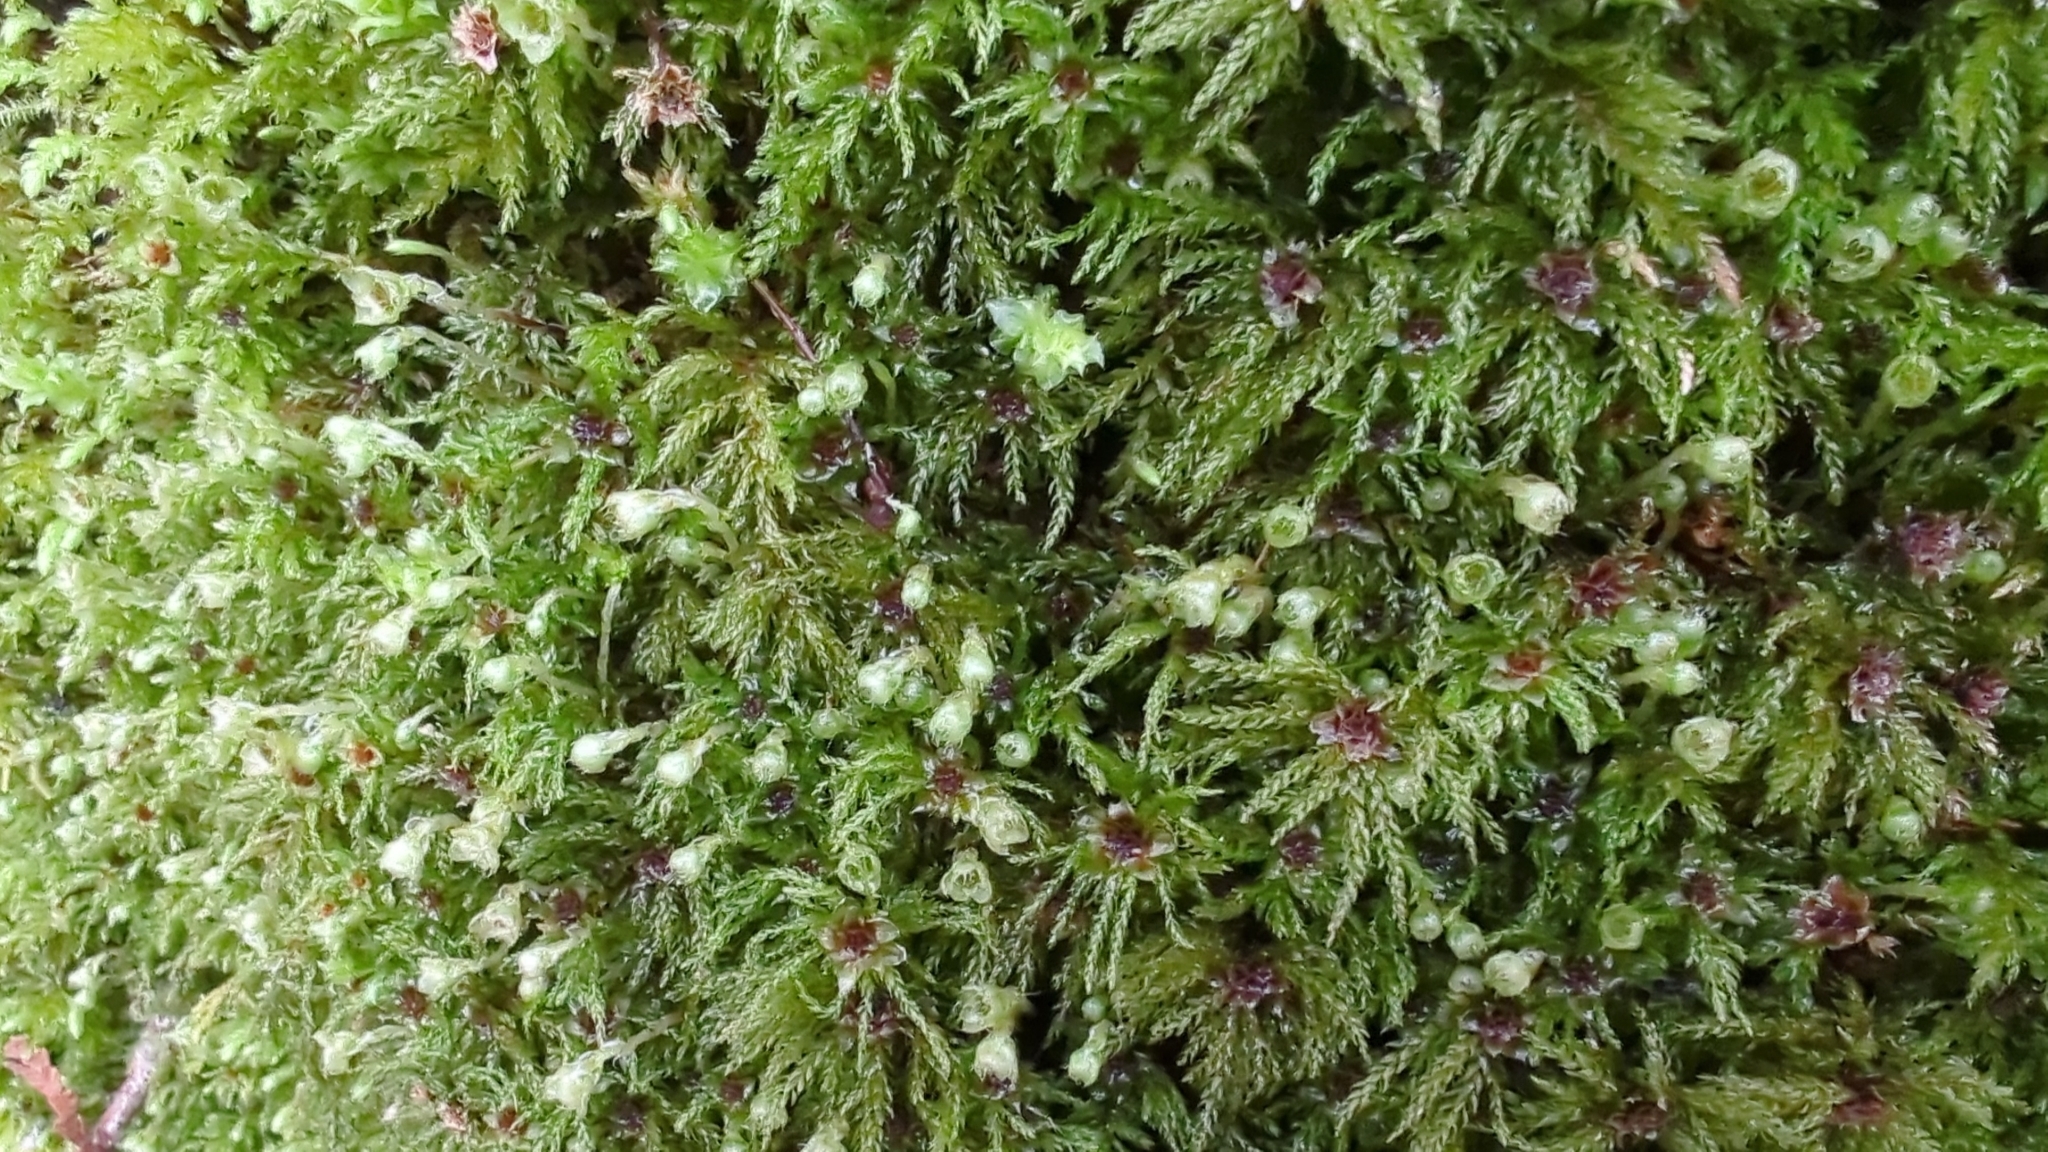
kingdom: Plantae
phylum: Bryophyta
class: Bryopsida
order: Bryales
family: Mniaceae
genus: Leucolepis
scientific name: Leucolepis acanthoneura
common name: Leucolepis umbrella moss
